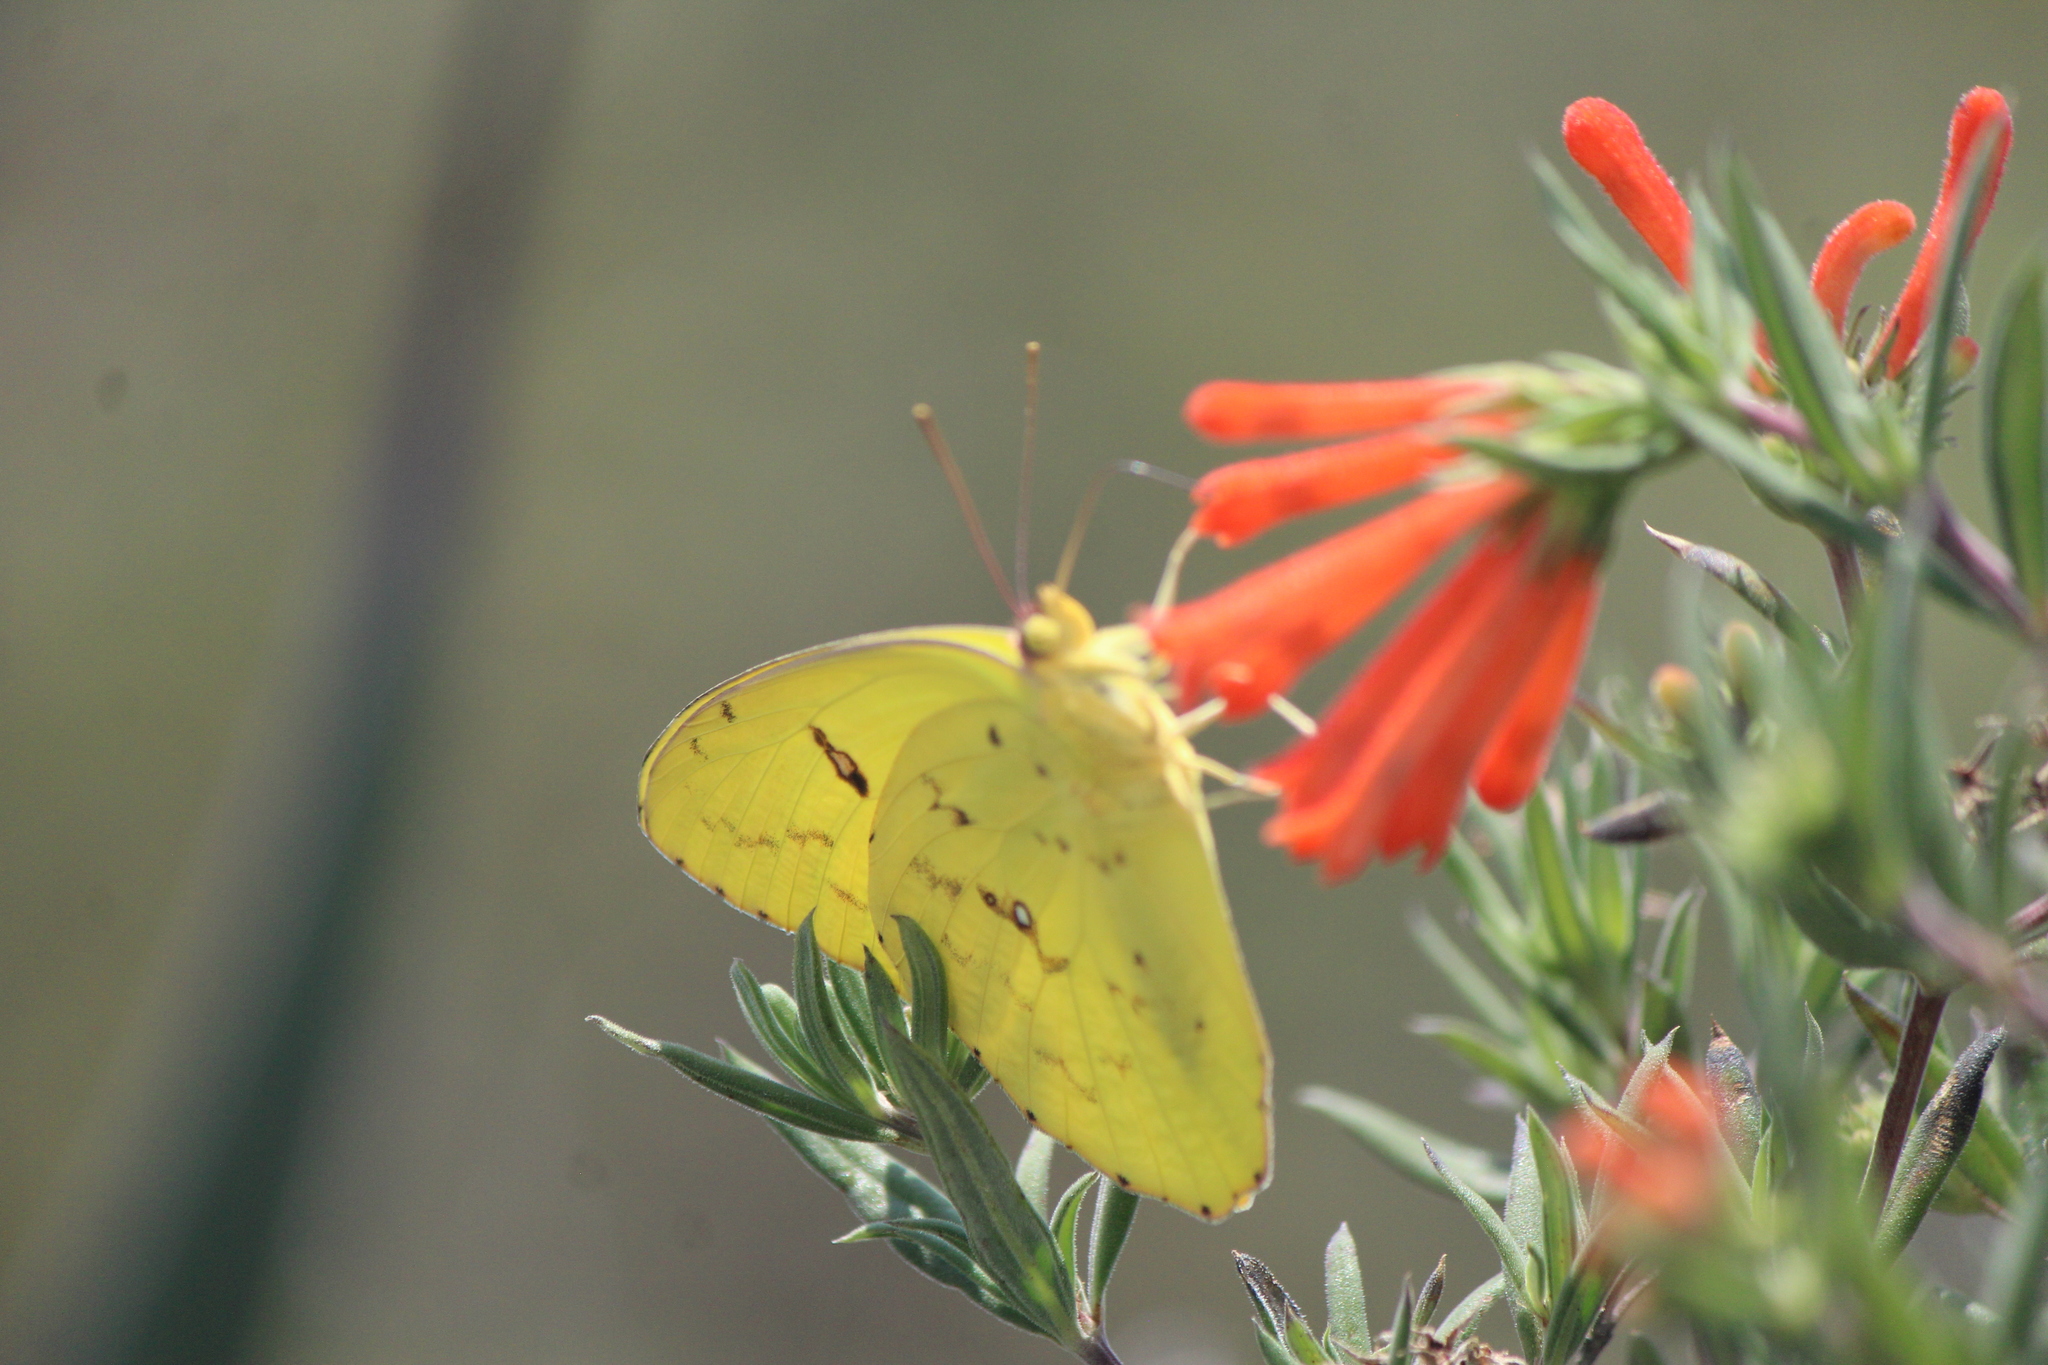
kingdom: Animalia
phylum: Arthropoda
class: Insecta
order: Lepidoptera
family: Pieridae
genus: Phoebis
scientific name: Phoebis marcellina
